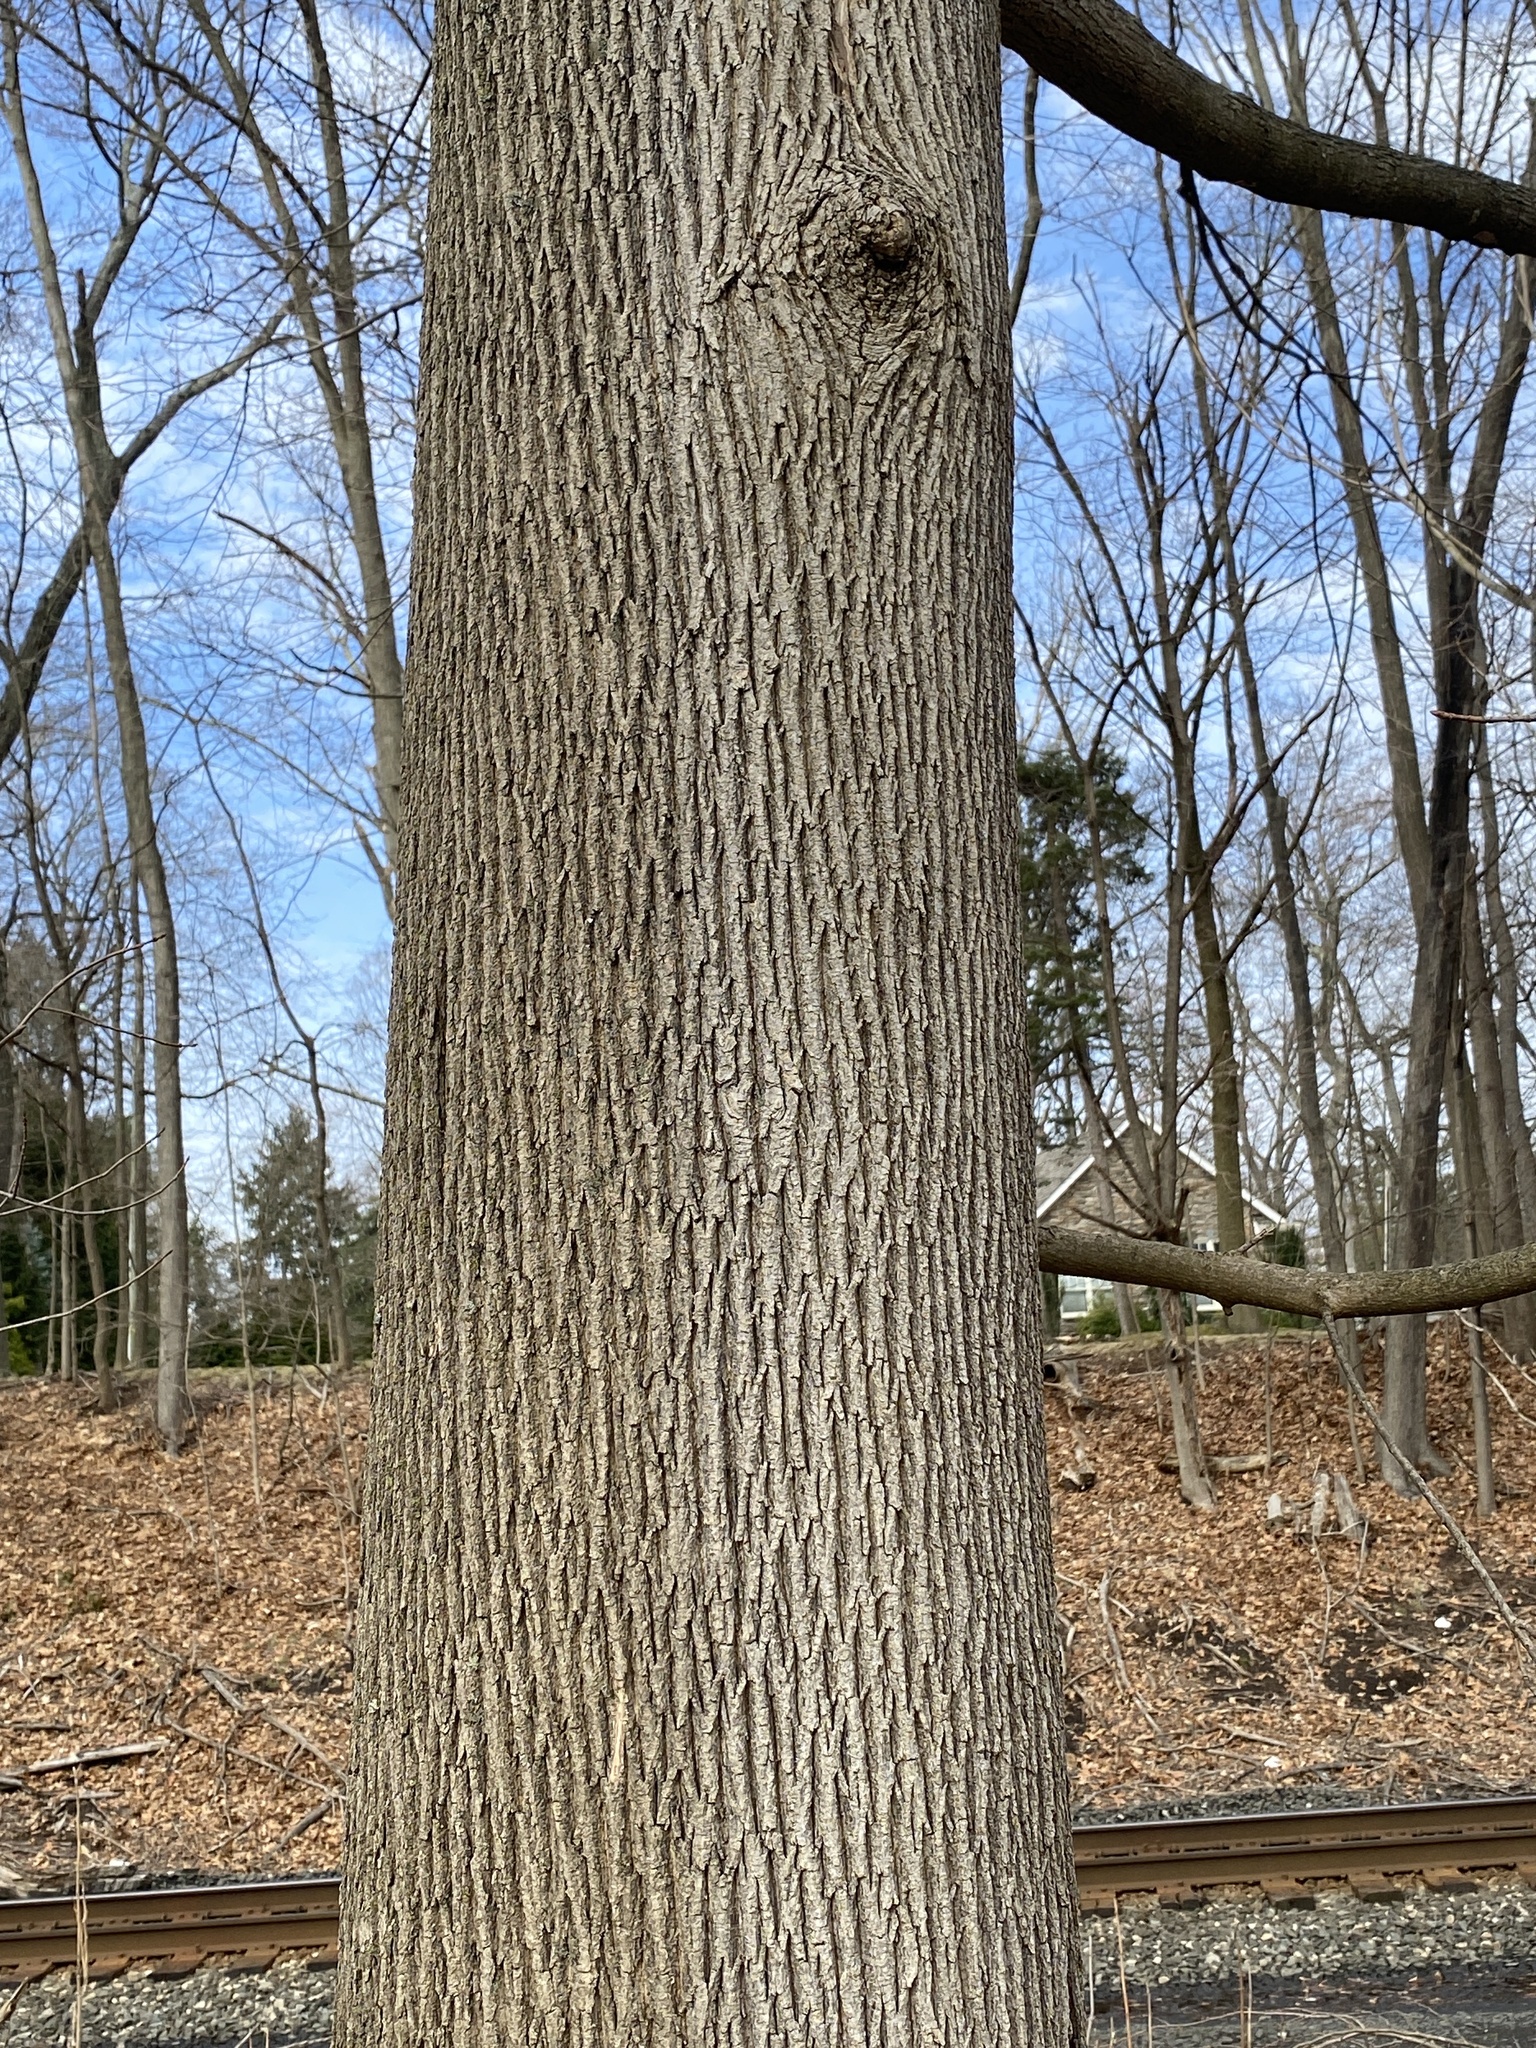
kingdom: Plantae
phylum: Tracheophyta
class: Magnoliopsida
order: Sapindales
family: Sapindaceae
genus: Acer
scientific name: Acer platanoides
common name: Norway maple
